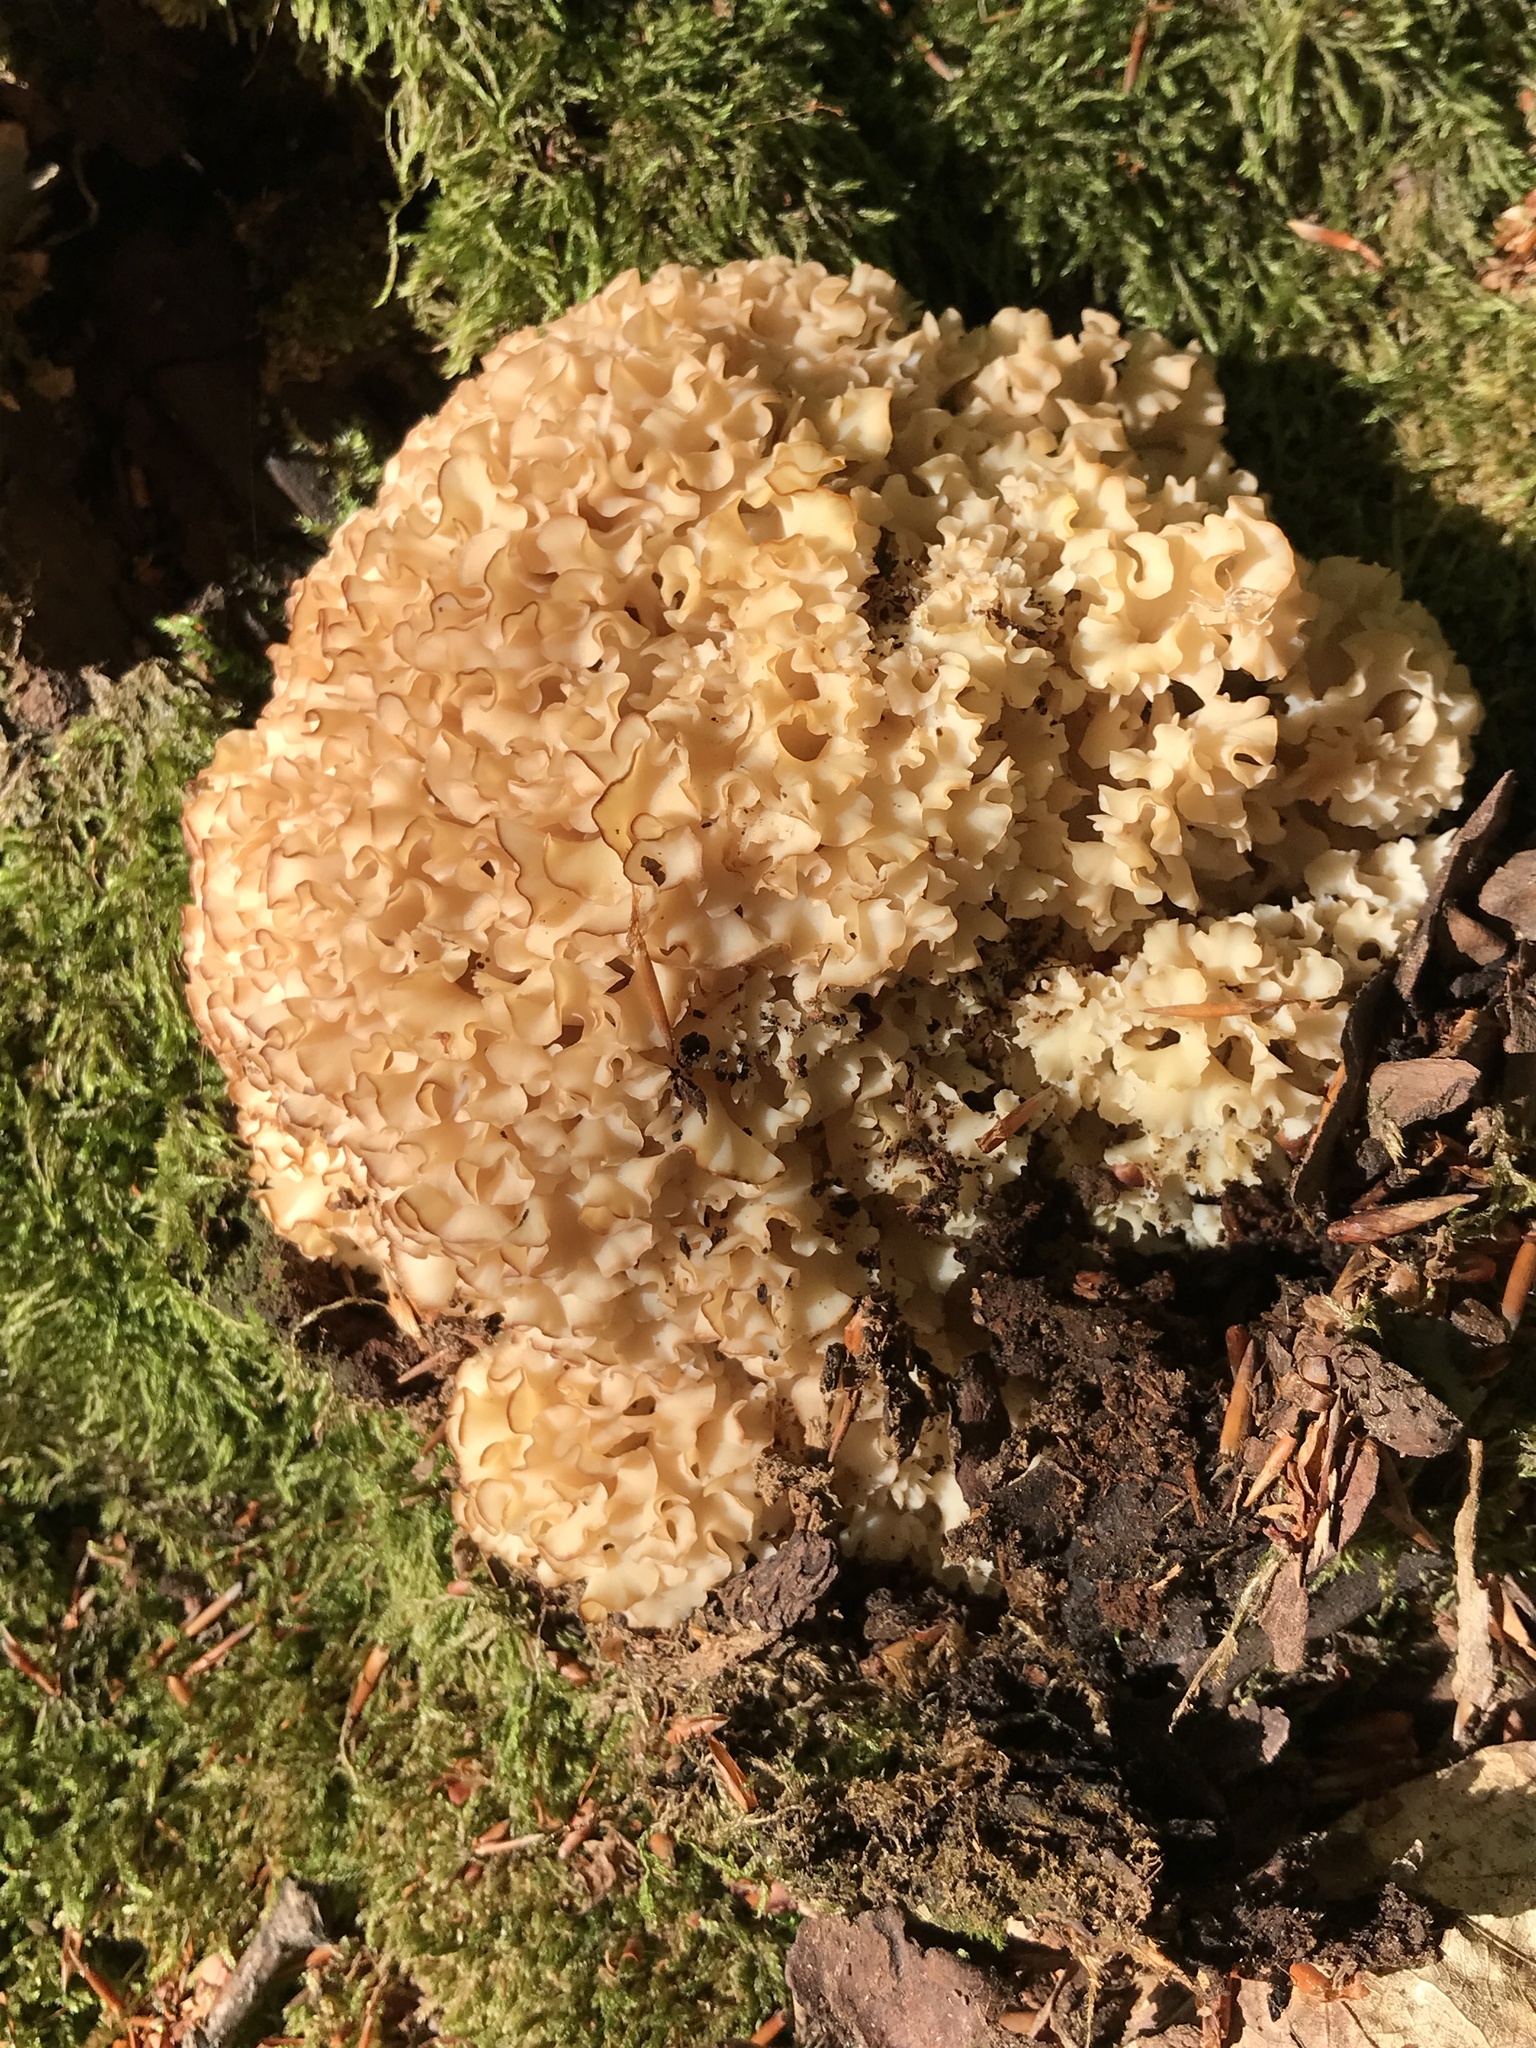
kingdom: Fungi
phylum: Basidiomycota
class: Agaricomycetes
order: Polyporales
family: Sparassidaceae
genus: Sparassis
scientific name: Sparassis crispa
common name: Brain fungus
